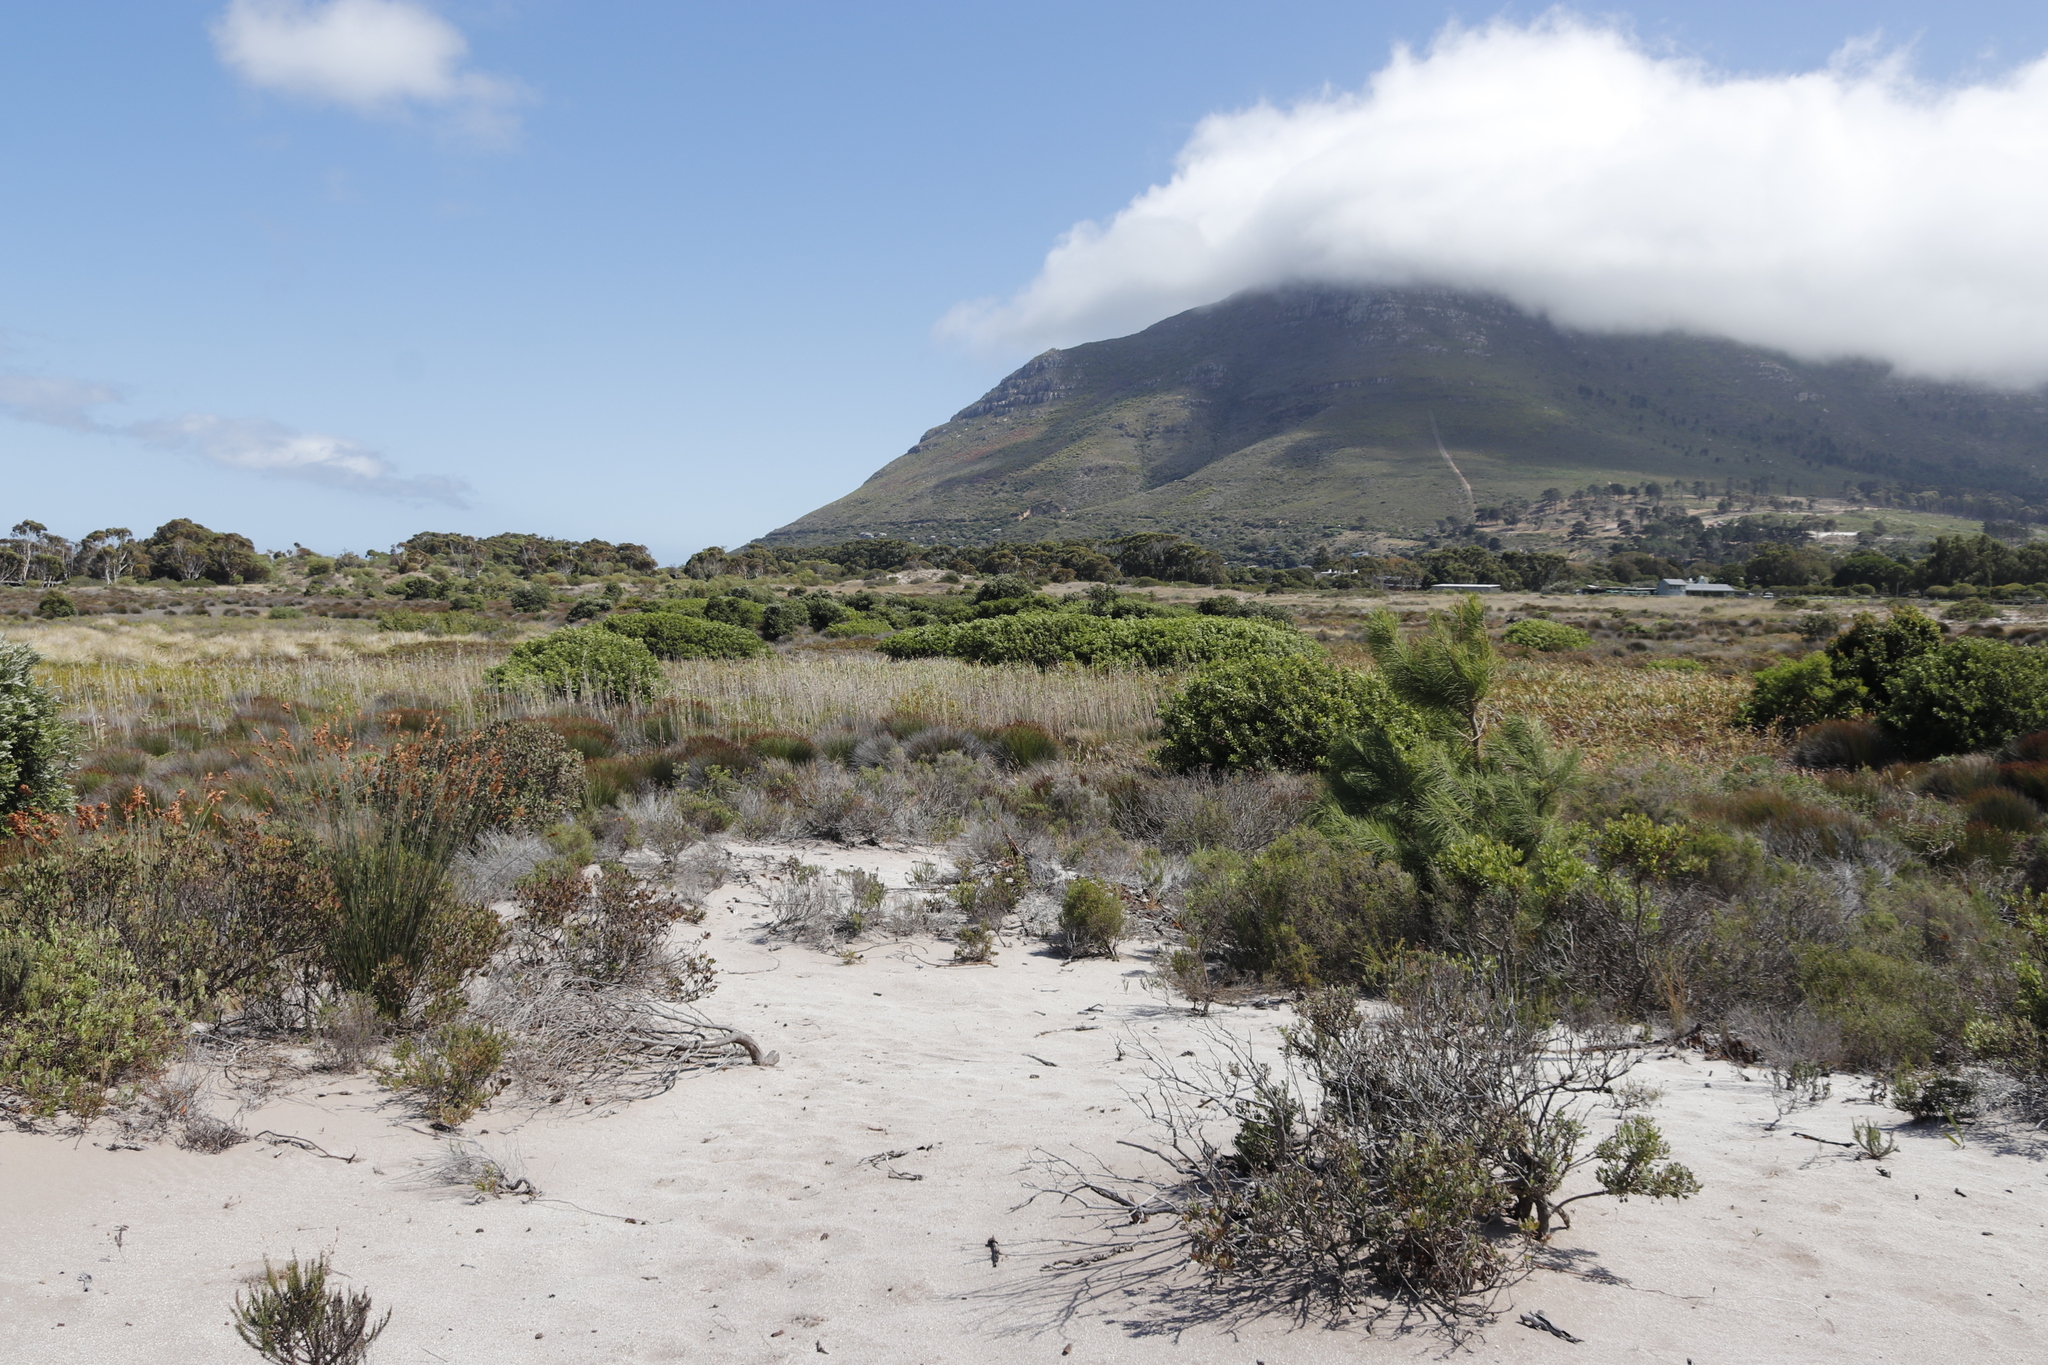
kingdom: Plantae
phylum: Tracheophyta
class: Liliopsida
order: Poales
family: Poaceae
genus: Phragmites
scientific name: Phragmites australis
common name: Common reed
